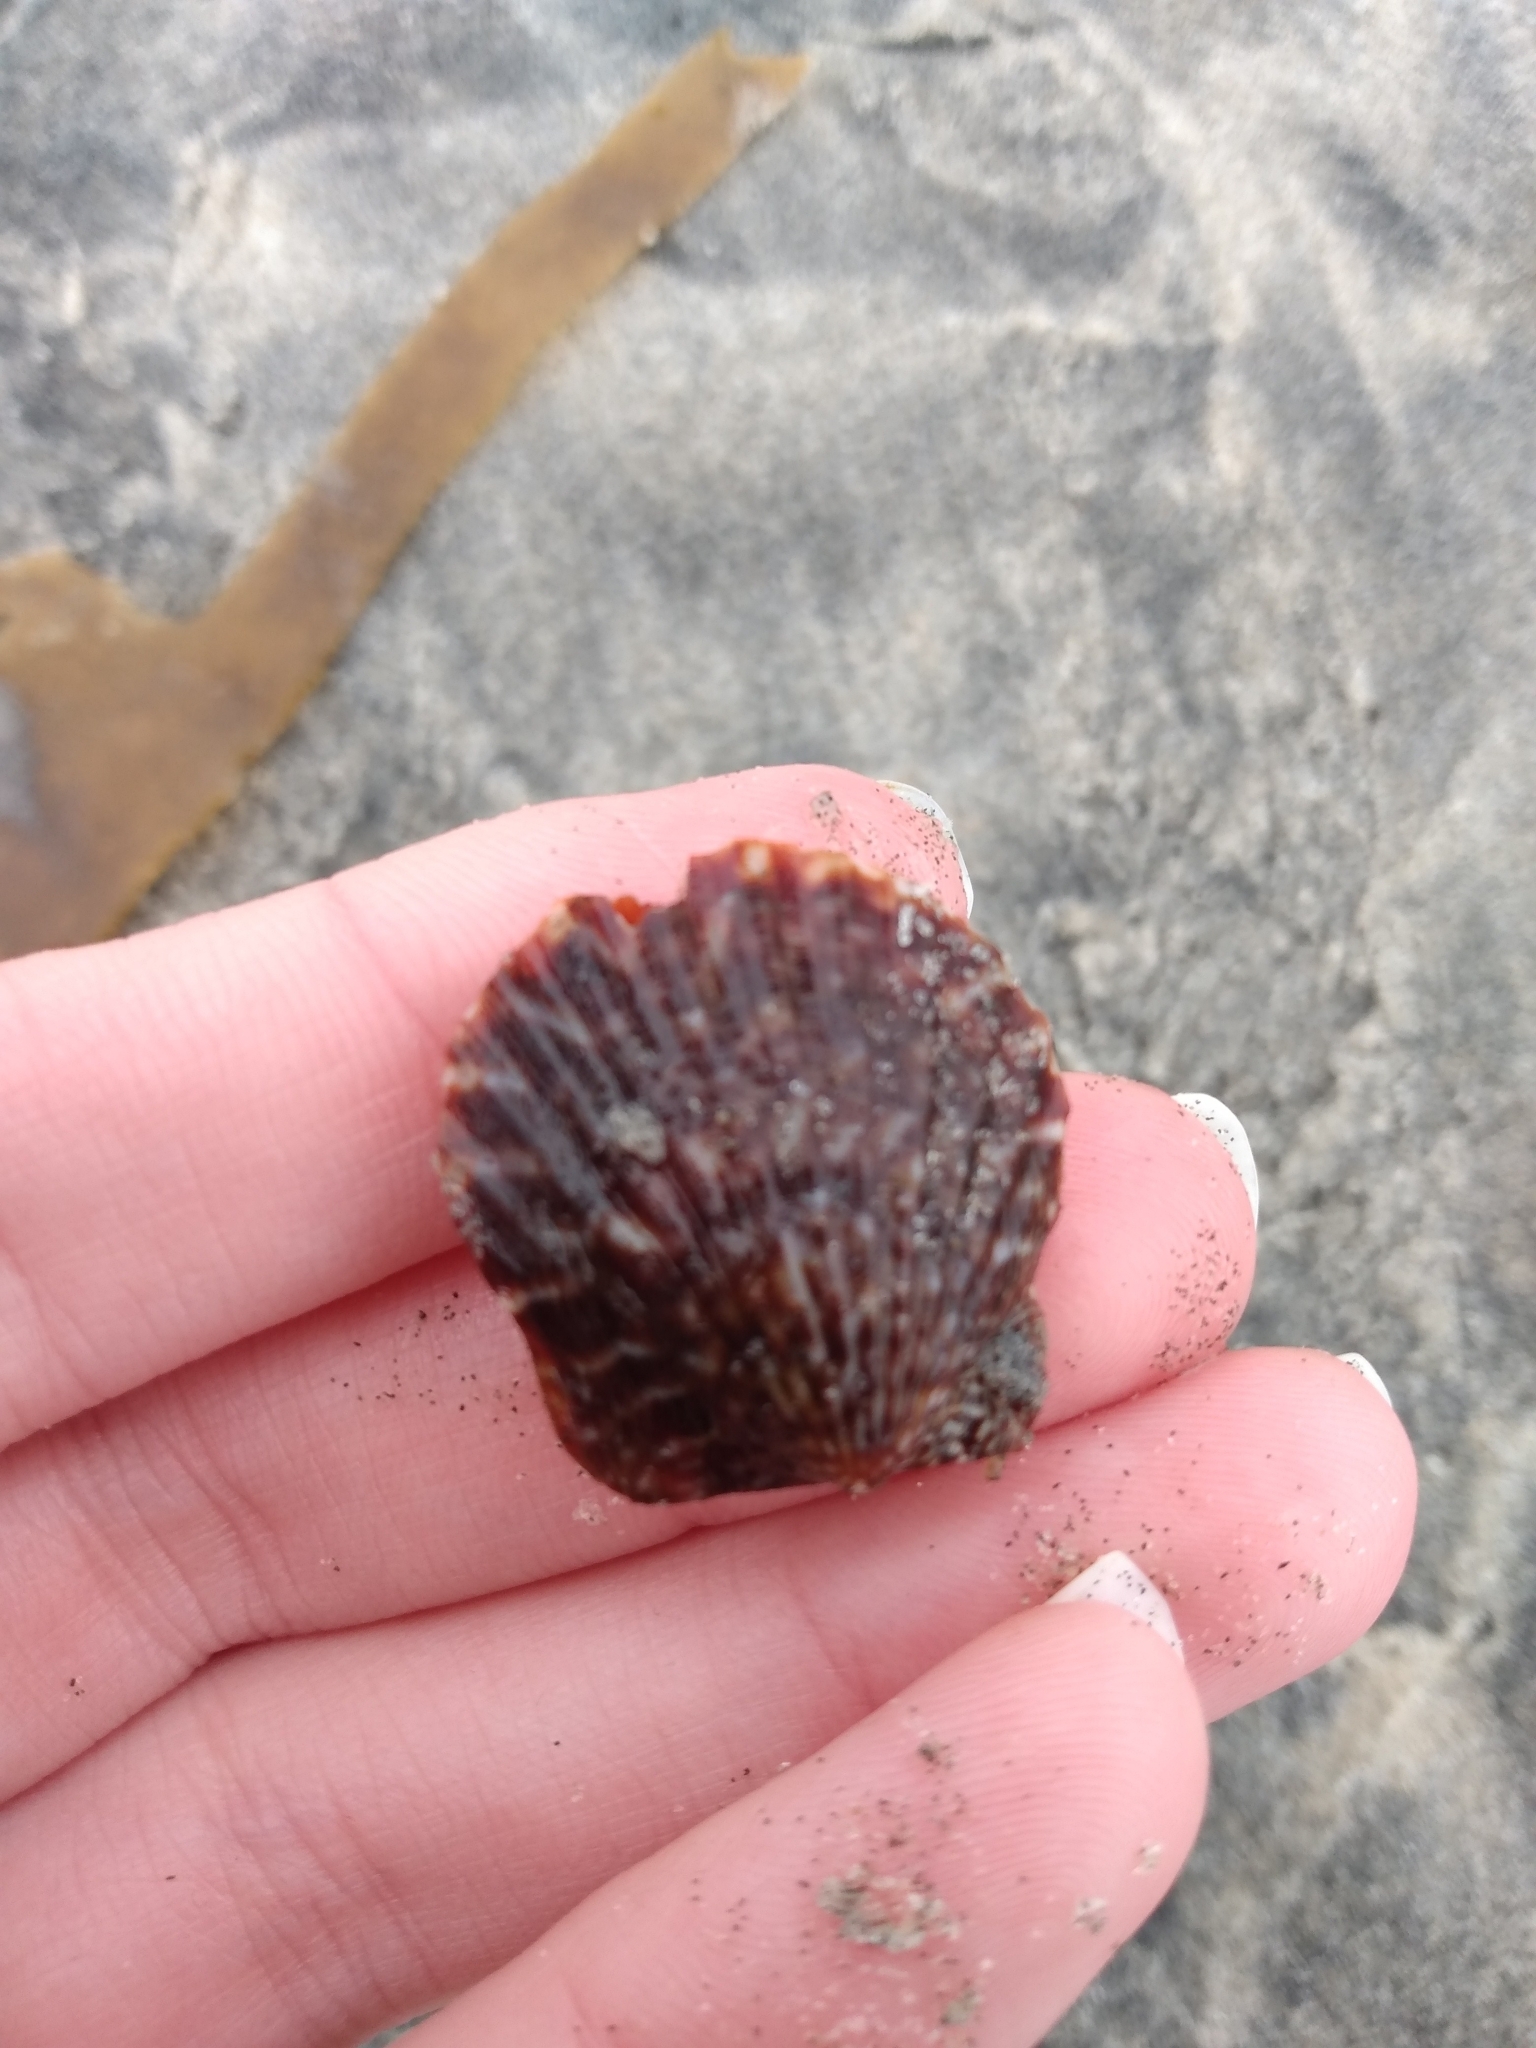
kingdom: Animalia
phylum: Mollusca
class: Bivalvia
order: Pectinida
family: Pectinidae
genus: Leptopecten
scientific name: Leptopecten latiauratus
